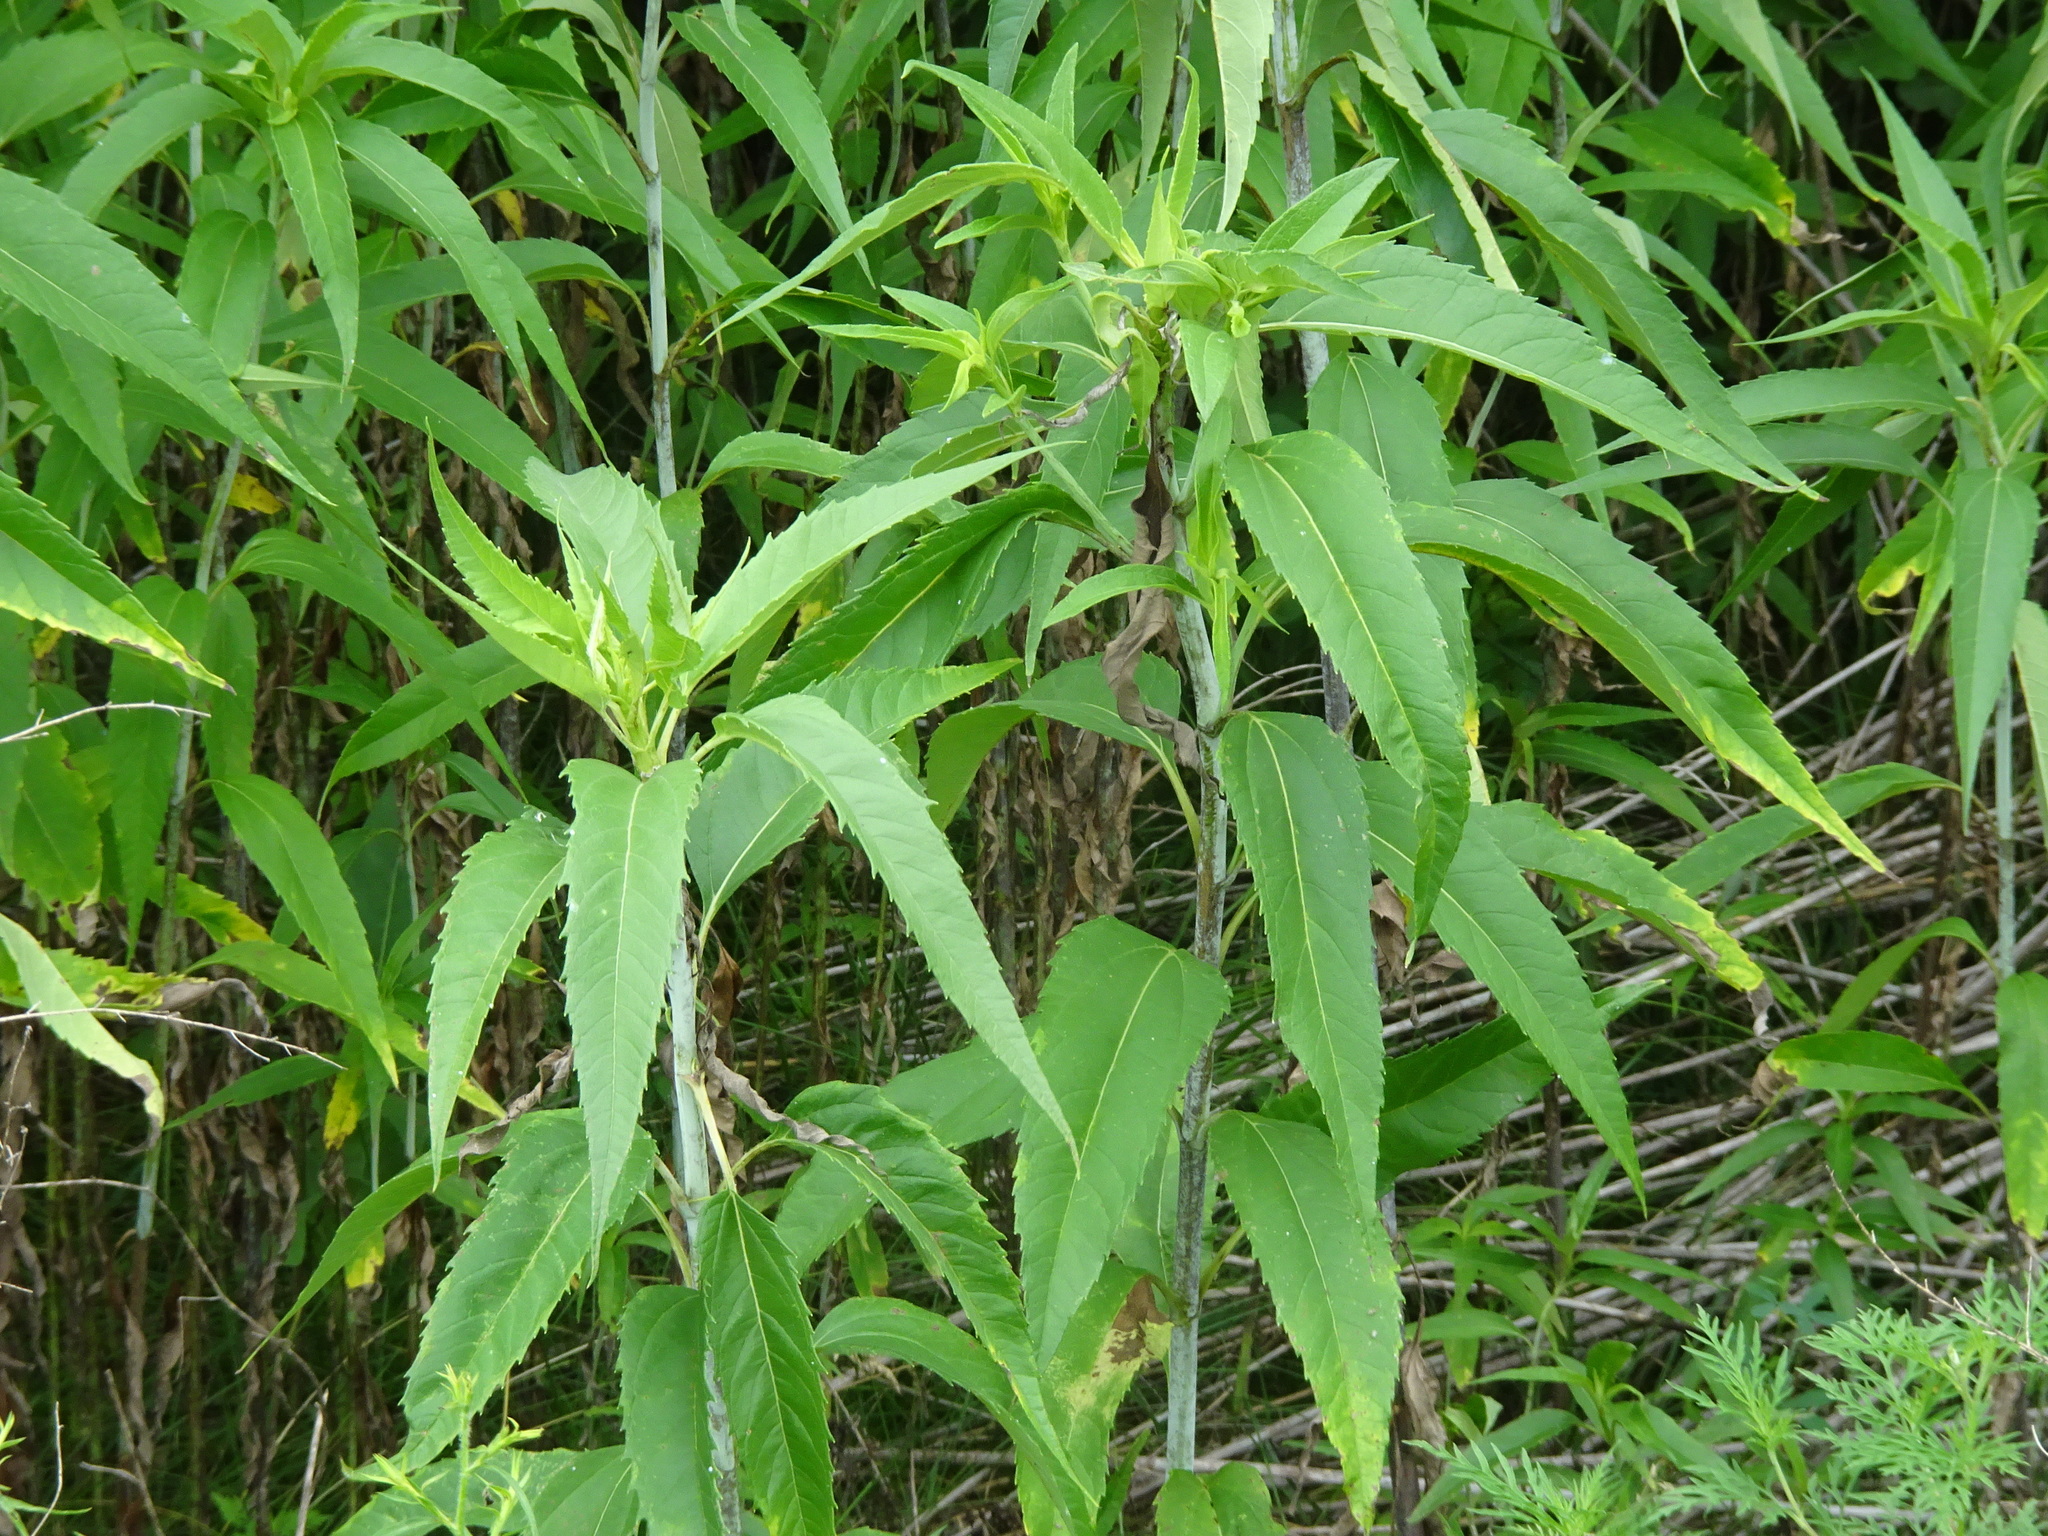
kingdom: Plantae
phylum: Tracheophyta
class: Magnoliopsida
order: Asterales
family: Asteraceae
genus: Helianthus
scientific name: Helianthus grosseserratus
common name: Sawtooth sunflower
